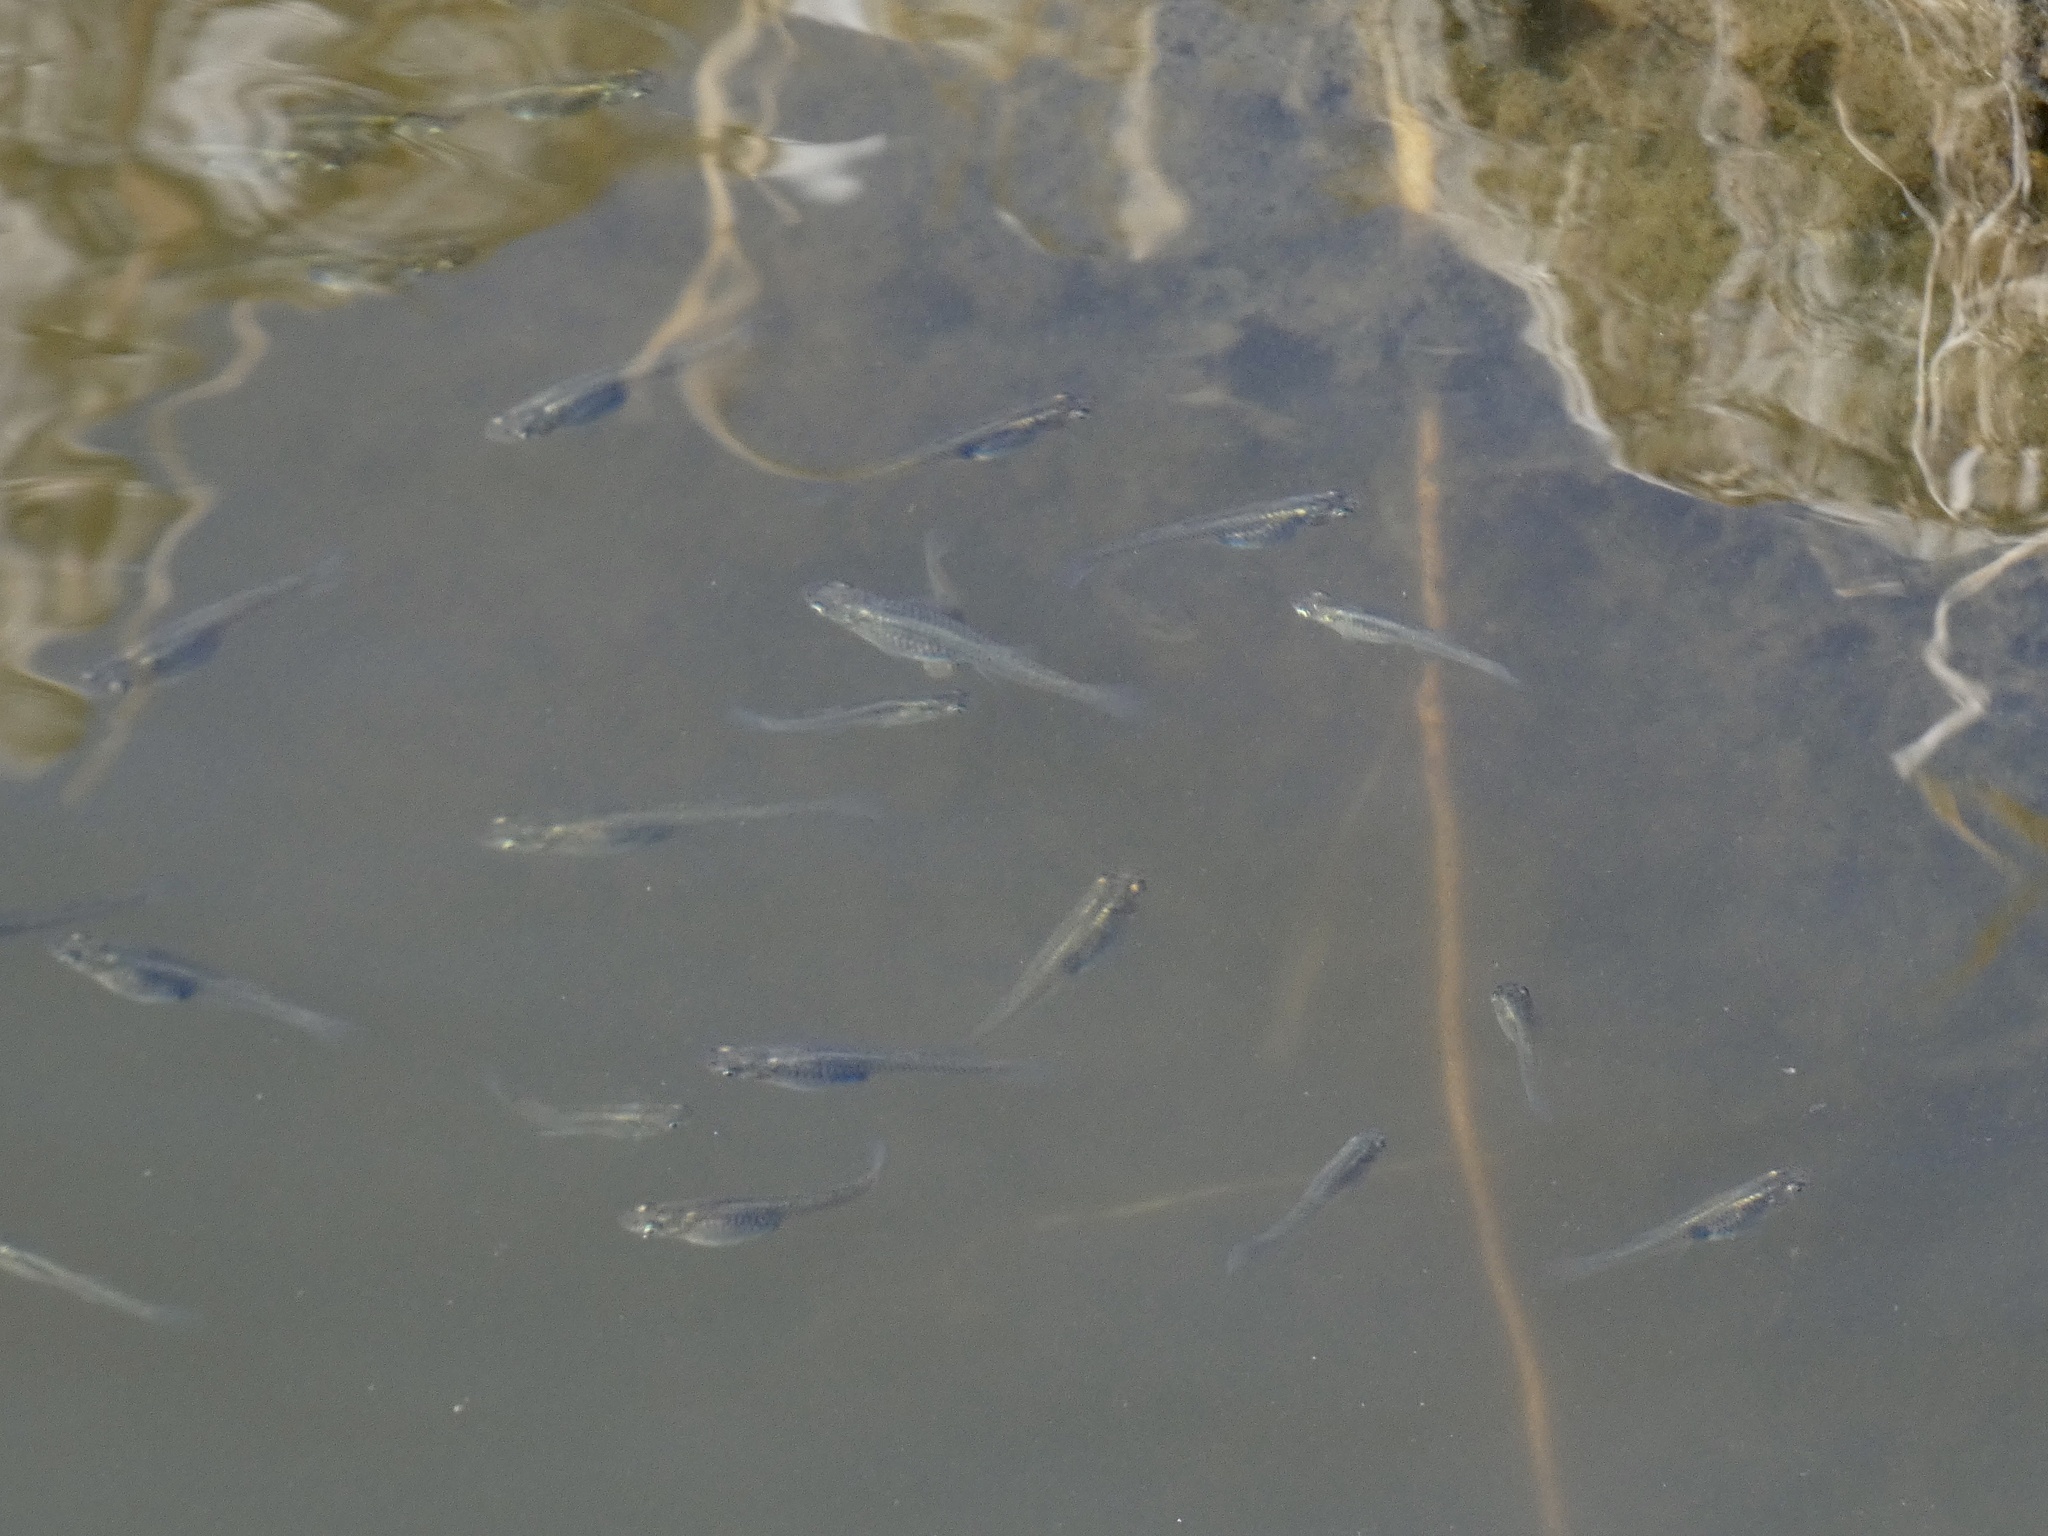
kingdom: Animalia
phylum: Chordata
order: Cyprinodontiformes
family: Poeciliidae
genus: Gambusia
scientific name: Gambusia affinis
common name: Mosquitofish
